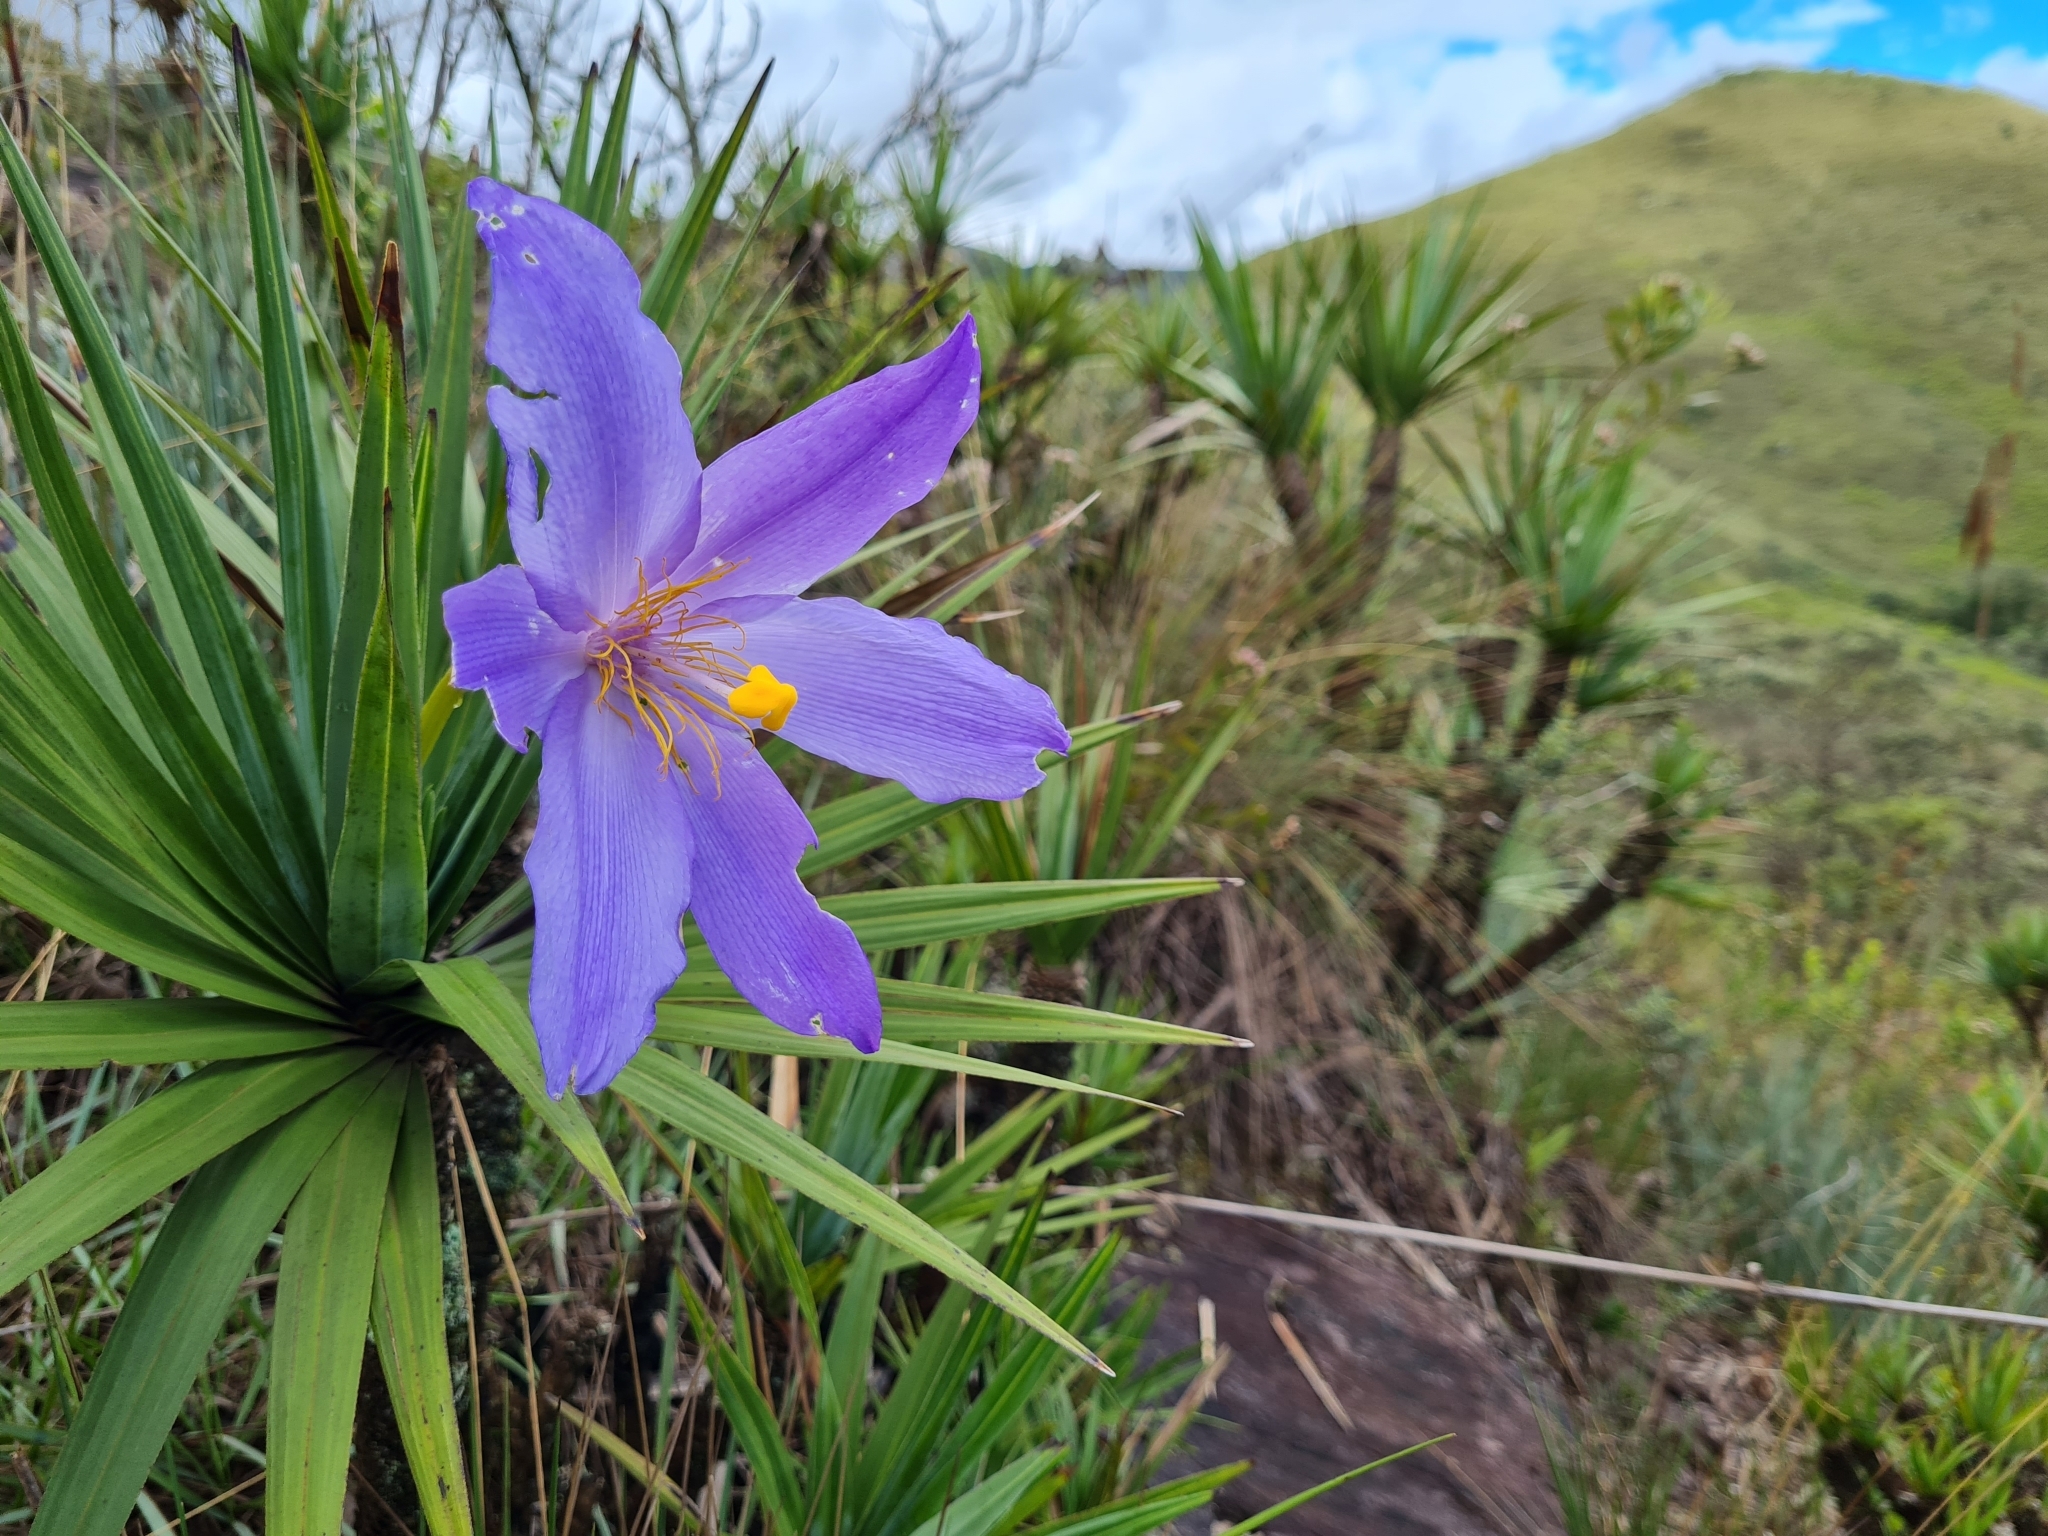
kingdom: Plantae
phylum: Tracheophyta
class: Liliopsida
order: Pandanales
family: Velloziaceae
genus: Vellozia
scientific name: Vellozia compacta
